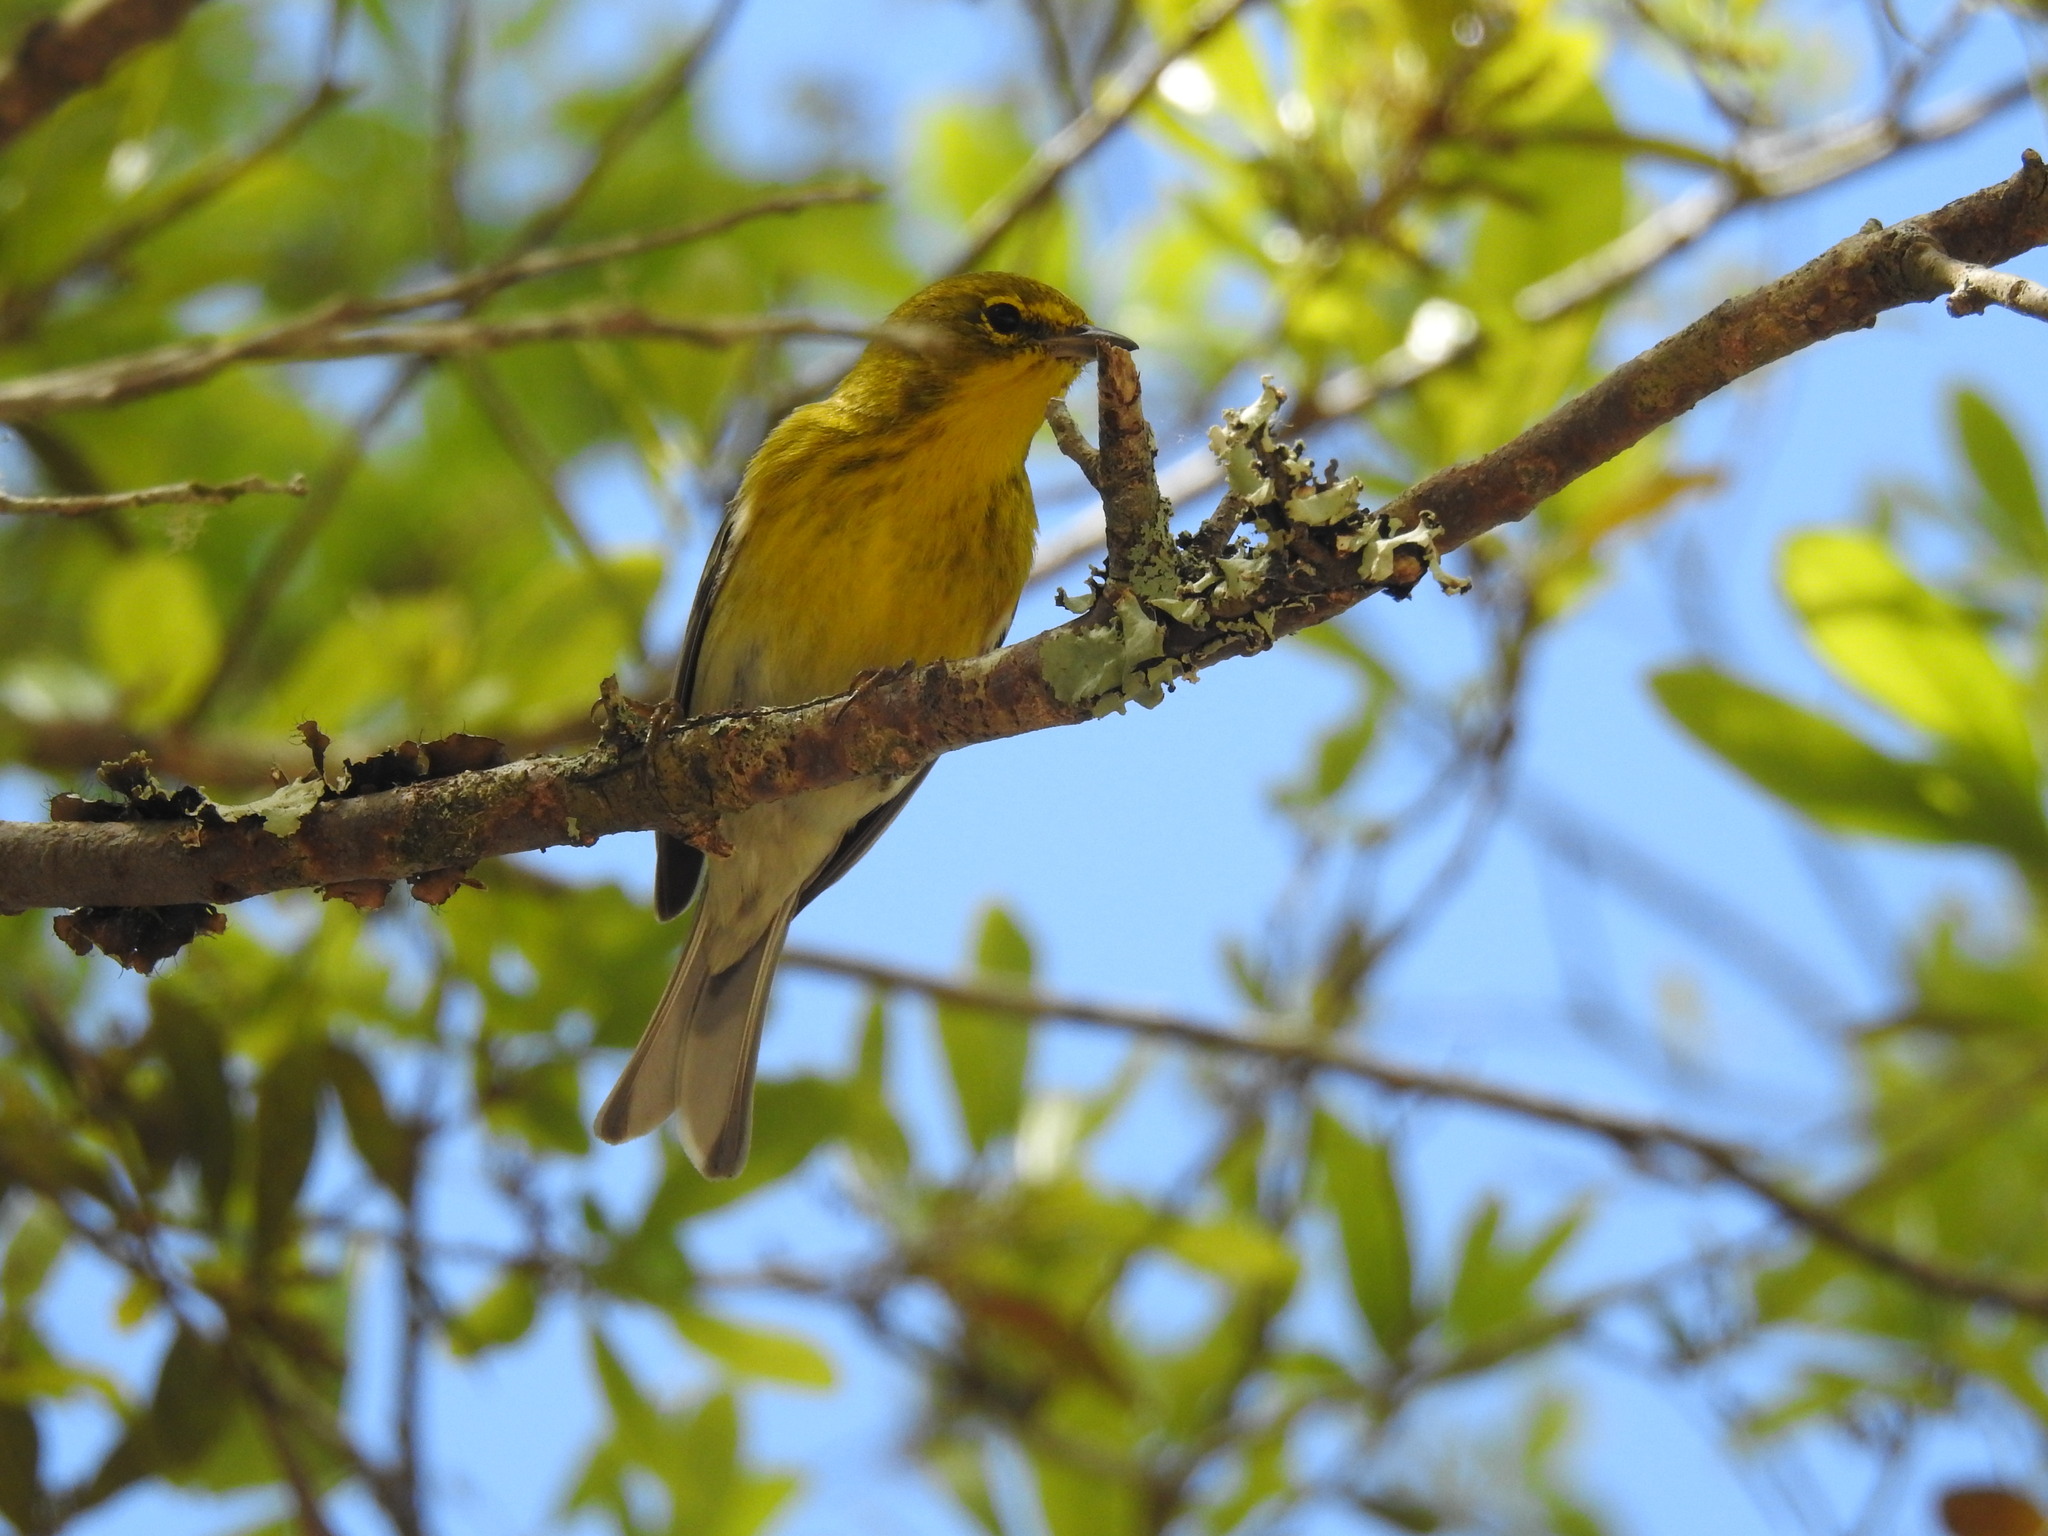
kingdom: Animalia
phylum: Chordata
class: Aves
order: Passeriformes
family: Parulidae
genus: Setophaga
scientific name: Setophaga pinus
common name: Pine warbler
